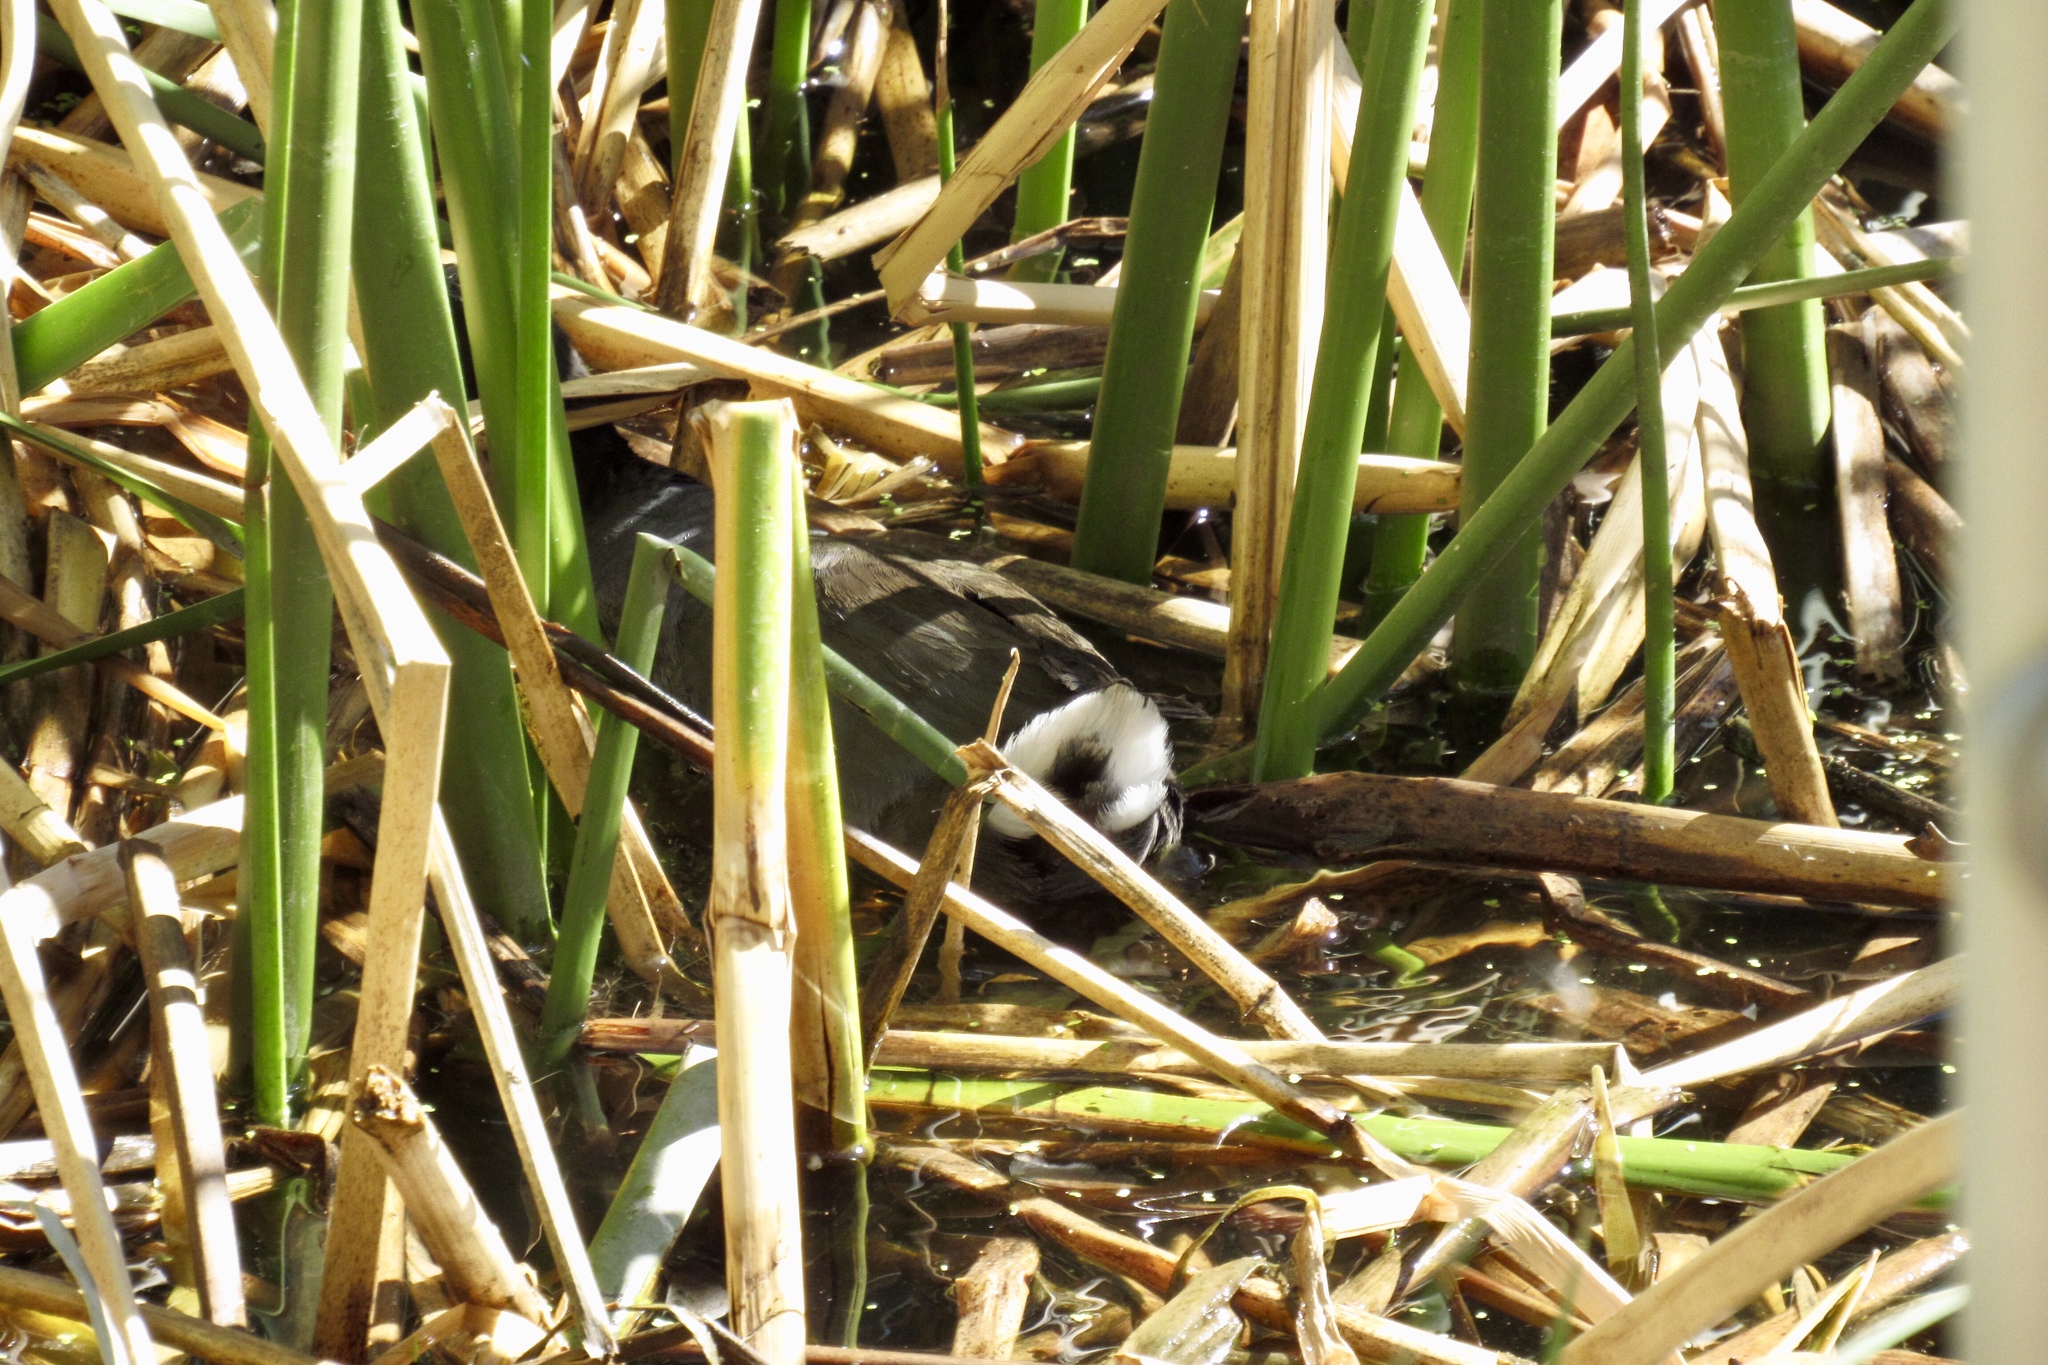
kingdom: Animalia
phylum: Chordata
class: Aves
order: Gruiformes
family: Rallidae
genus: Fulica
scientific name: Fulica americana
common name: American coot
